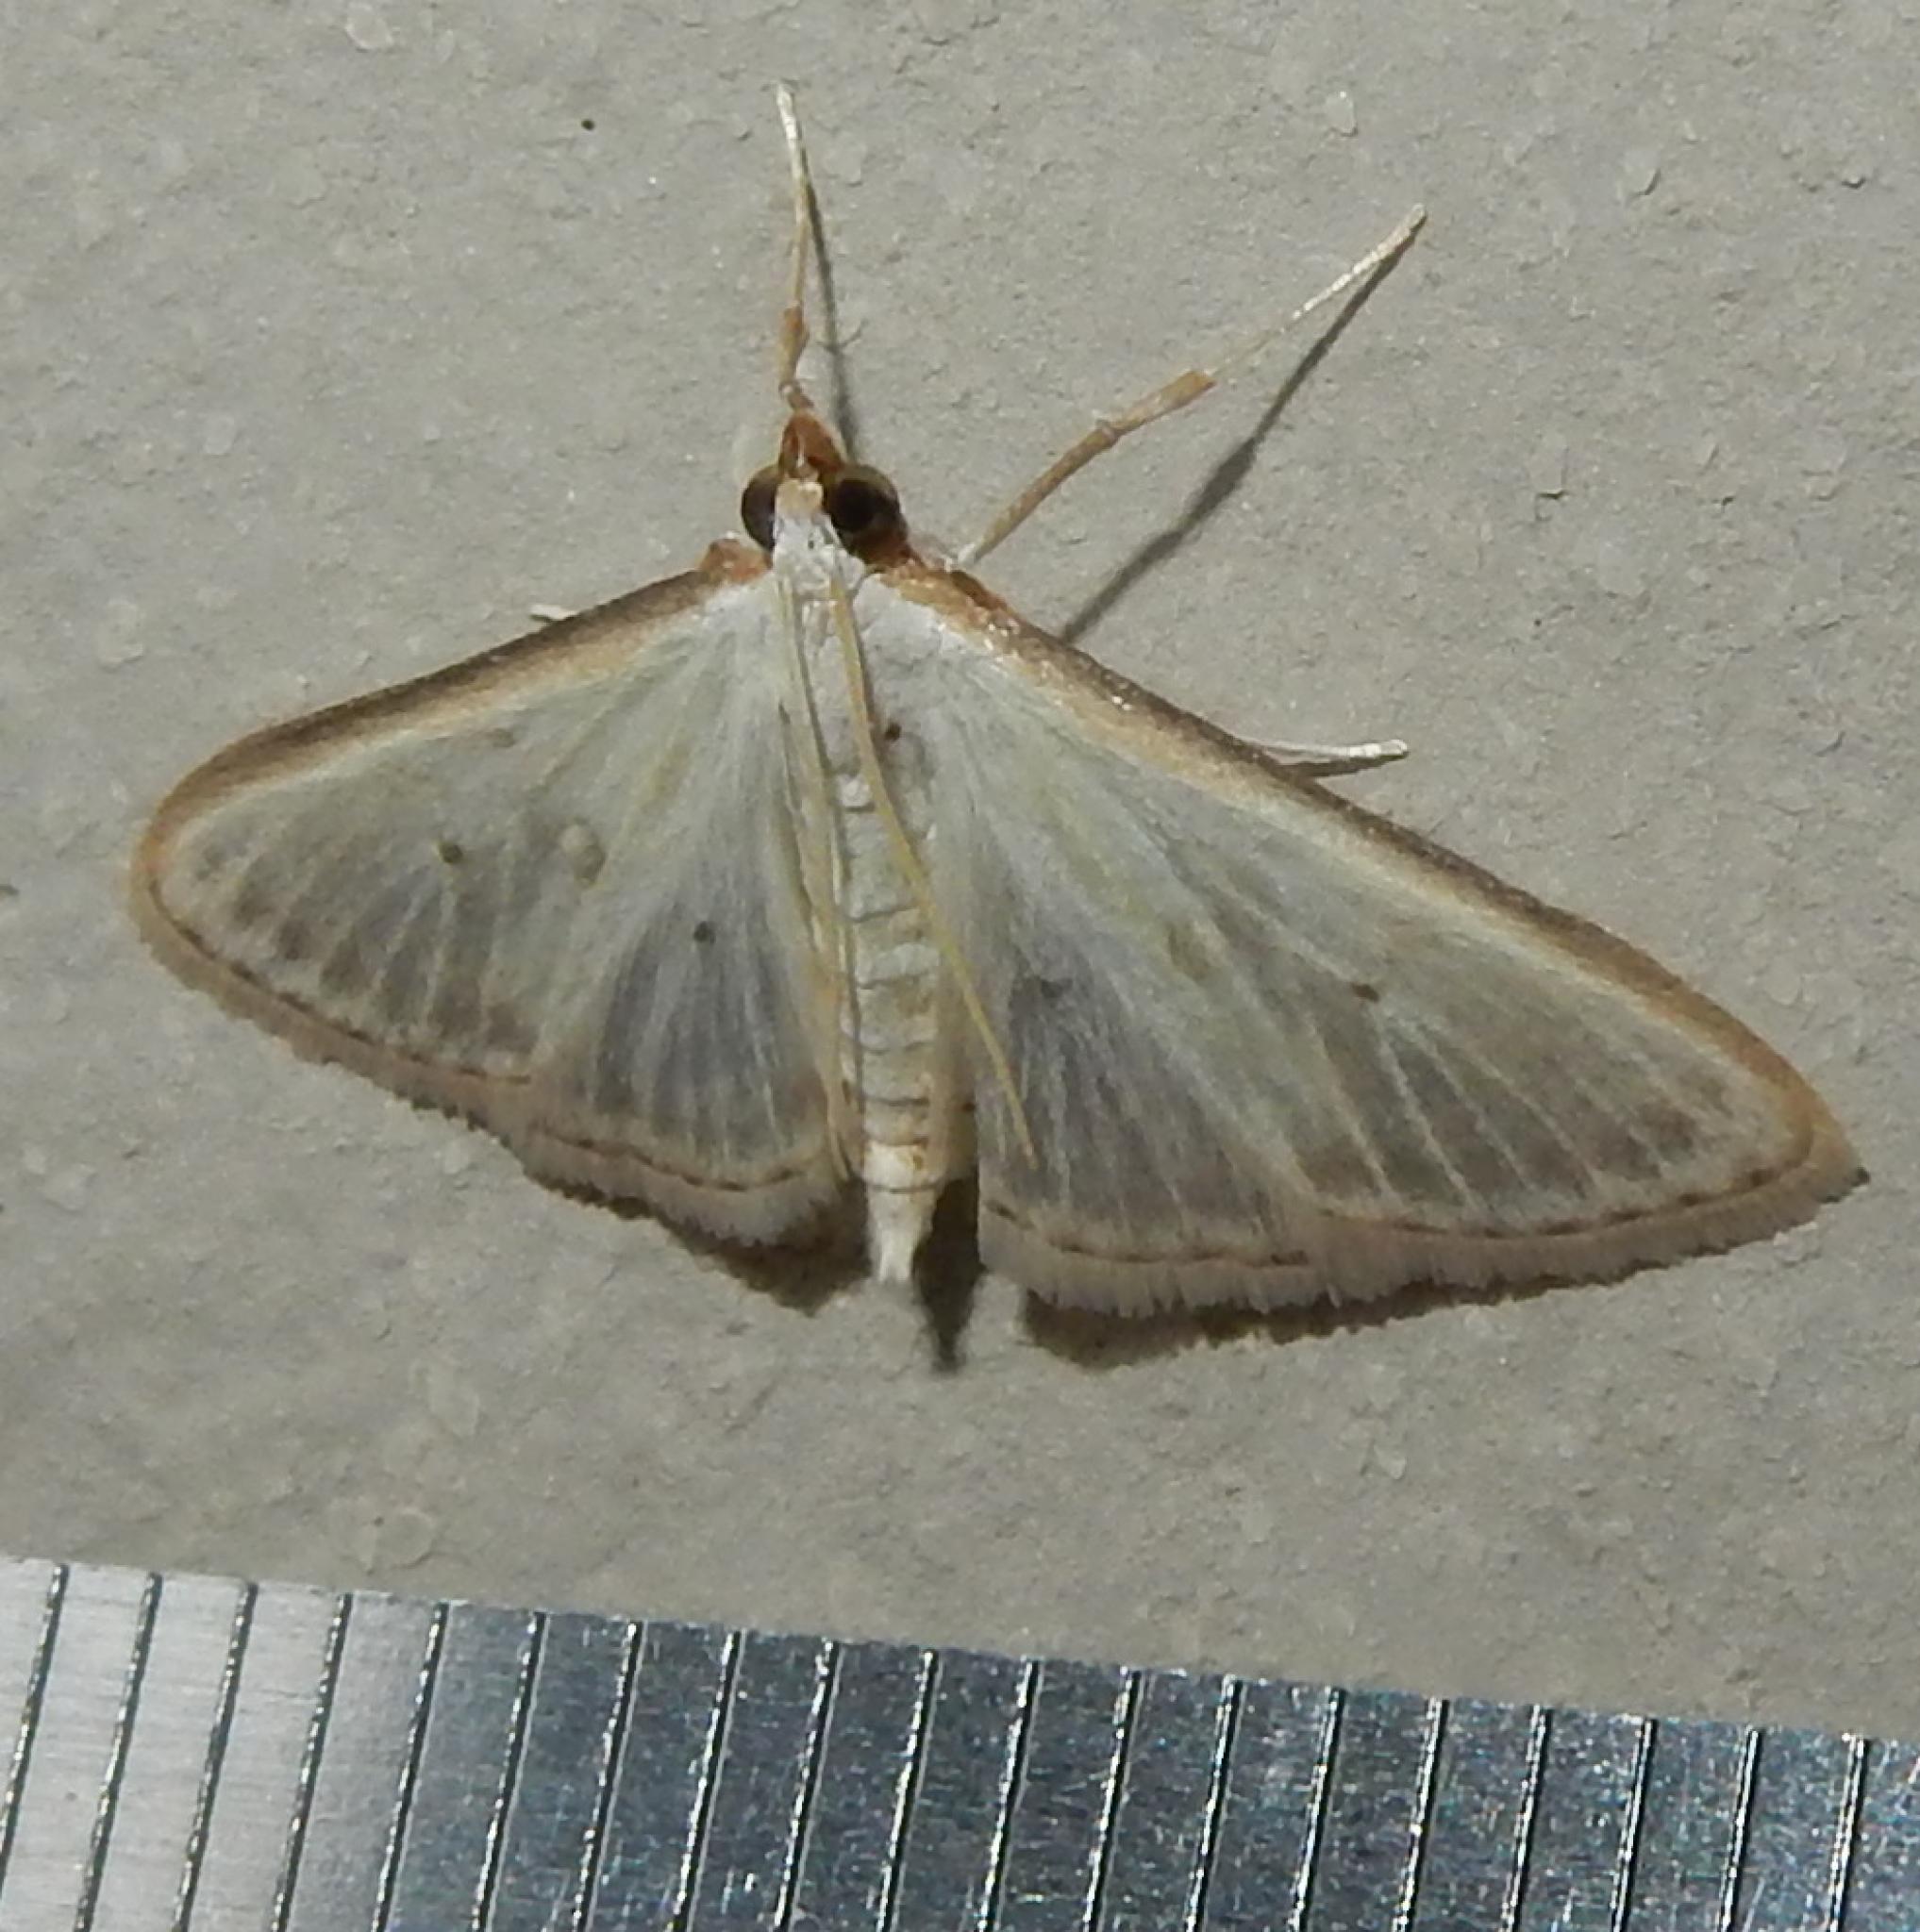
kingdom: Animalia
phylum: Arthropoda
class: Insecta
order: Lepidoptera
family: Crambidae
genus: Palpita
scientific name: Palpita vitrealis
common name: Olive-tree pearl
